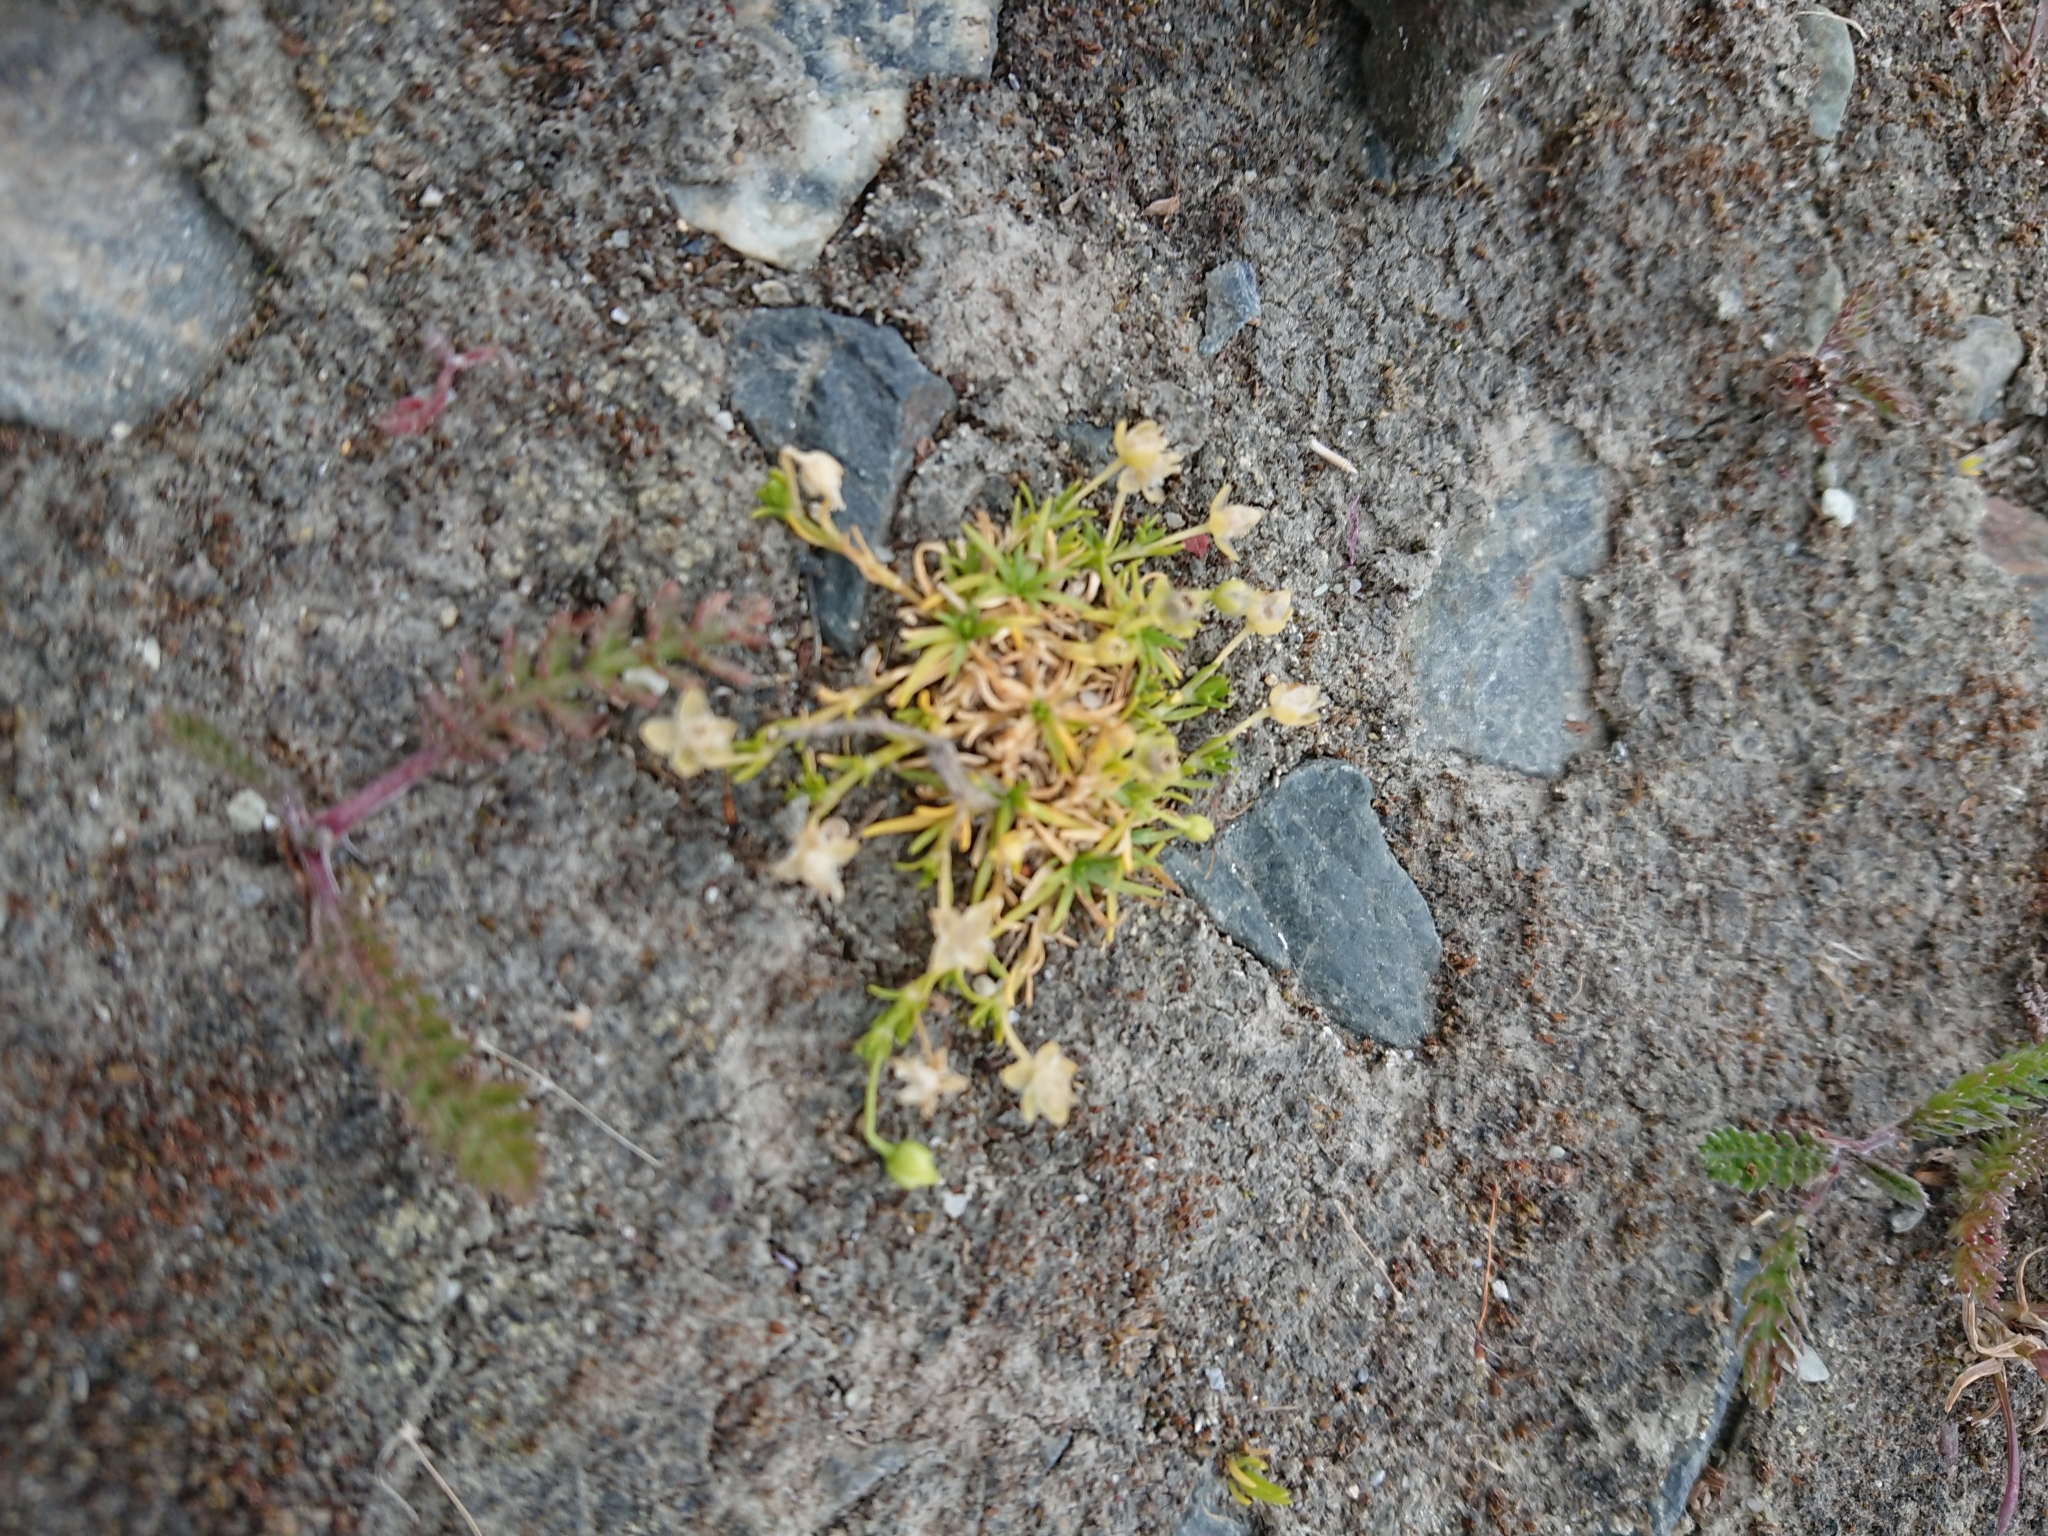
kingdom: Plantae
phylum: Tracheophyta
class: Magnoliopsida
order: Caryophyllales
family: Caryophyllaceae
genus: Sagina
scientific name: Sagina procumbens
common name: Procumbent pearlwort
